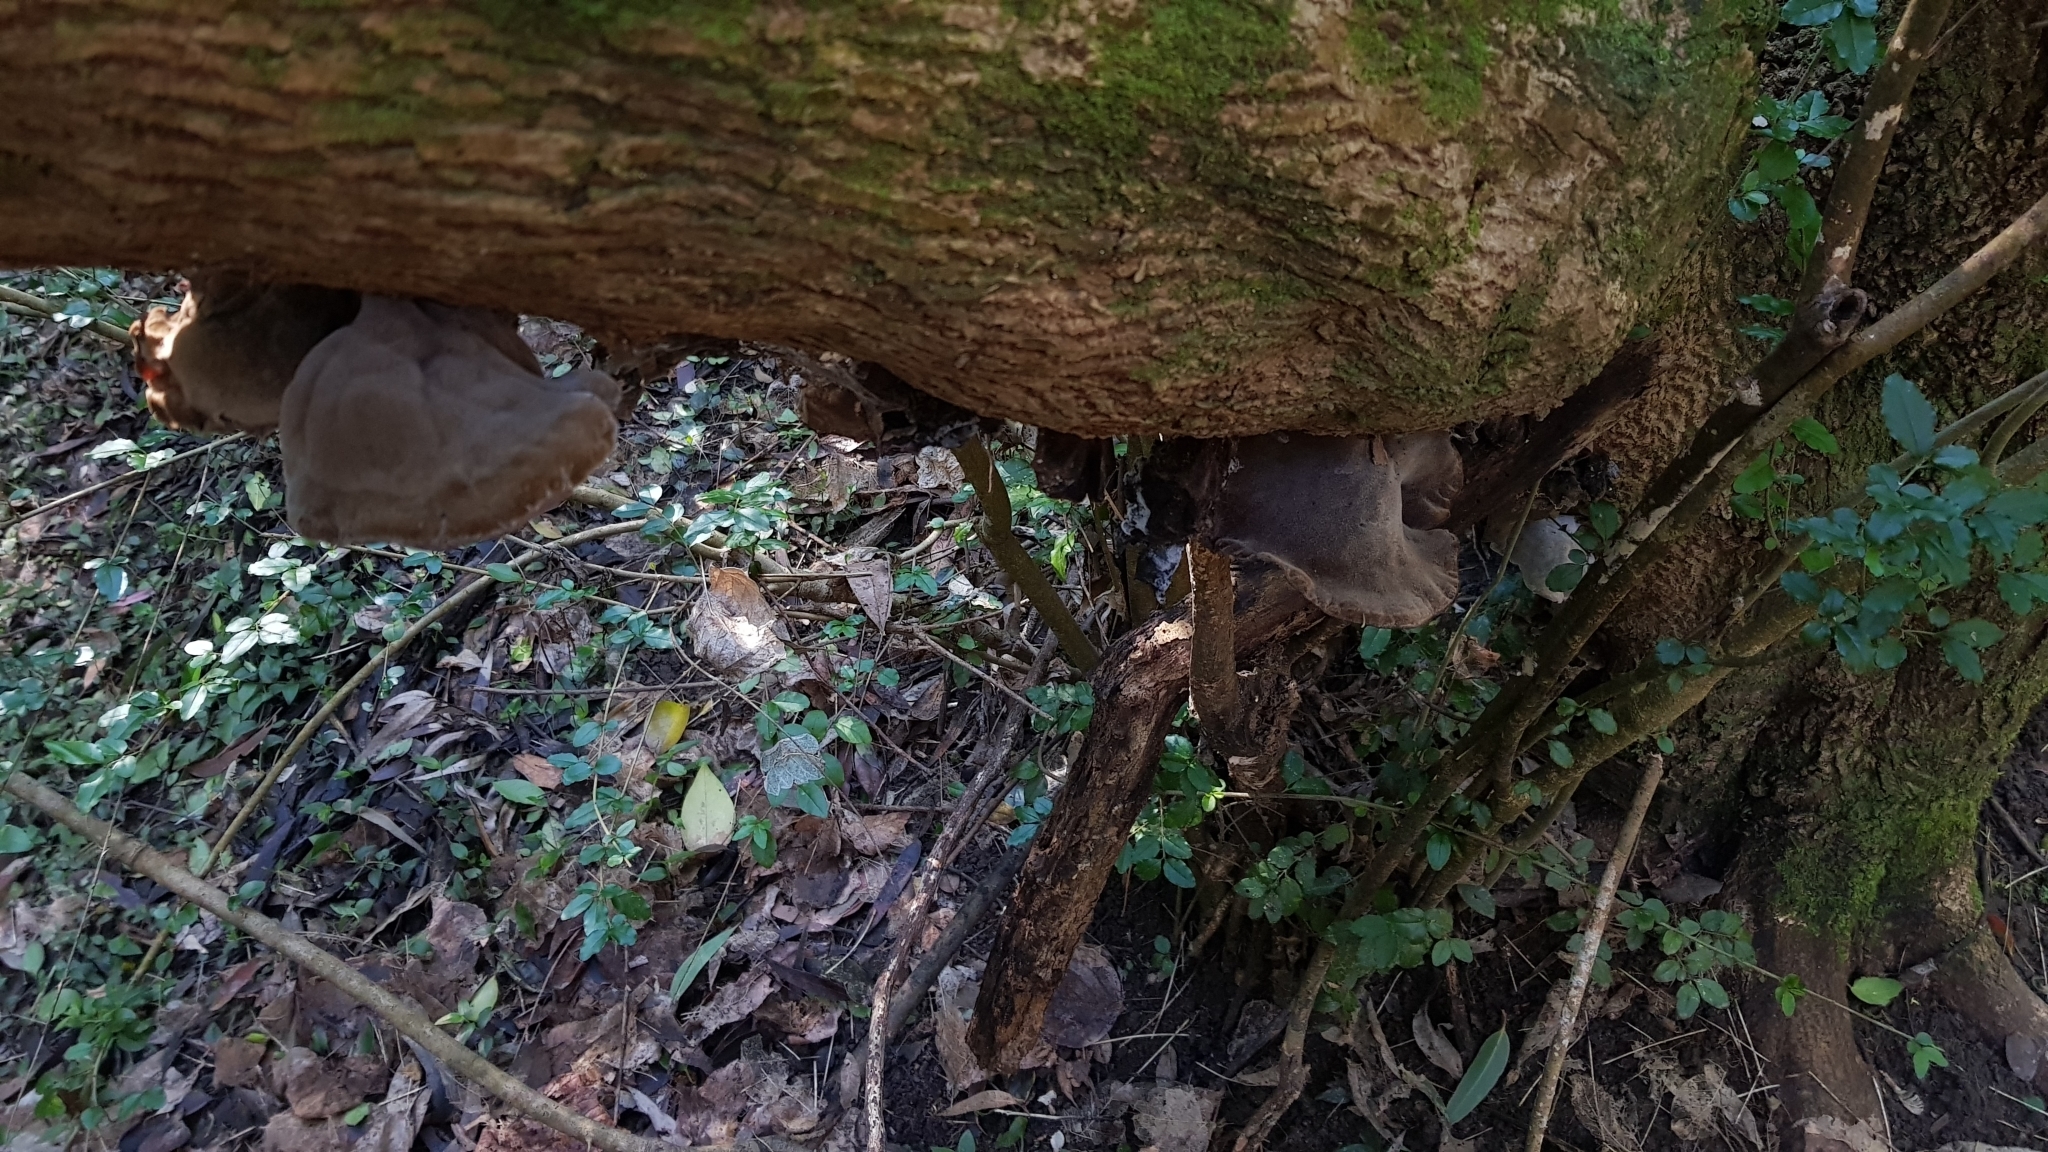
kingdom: Fungi
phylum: Basidiomycota
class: Agaricomycetes
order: Auriculariales
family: Auriculariaceae
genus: Auricularia
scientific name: Auricularia cornea
